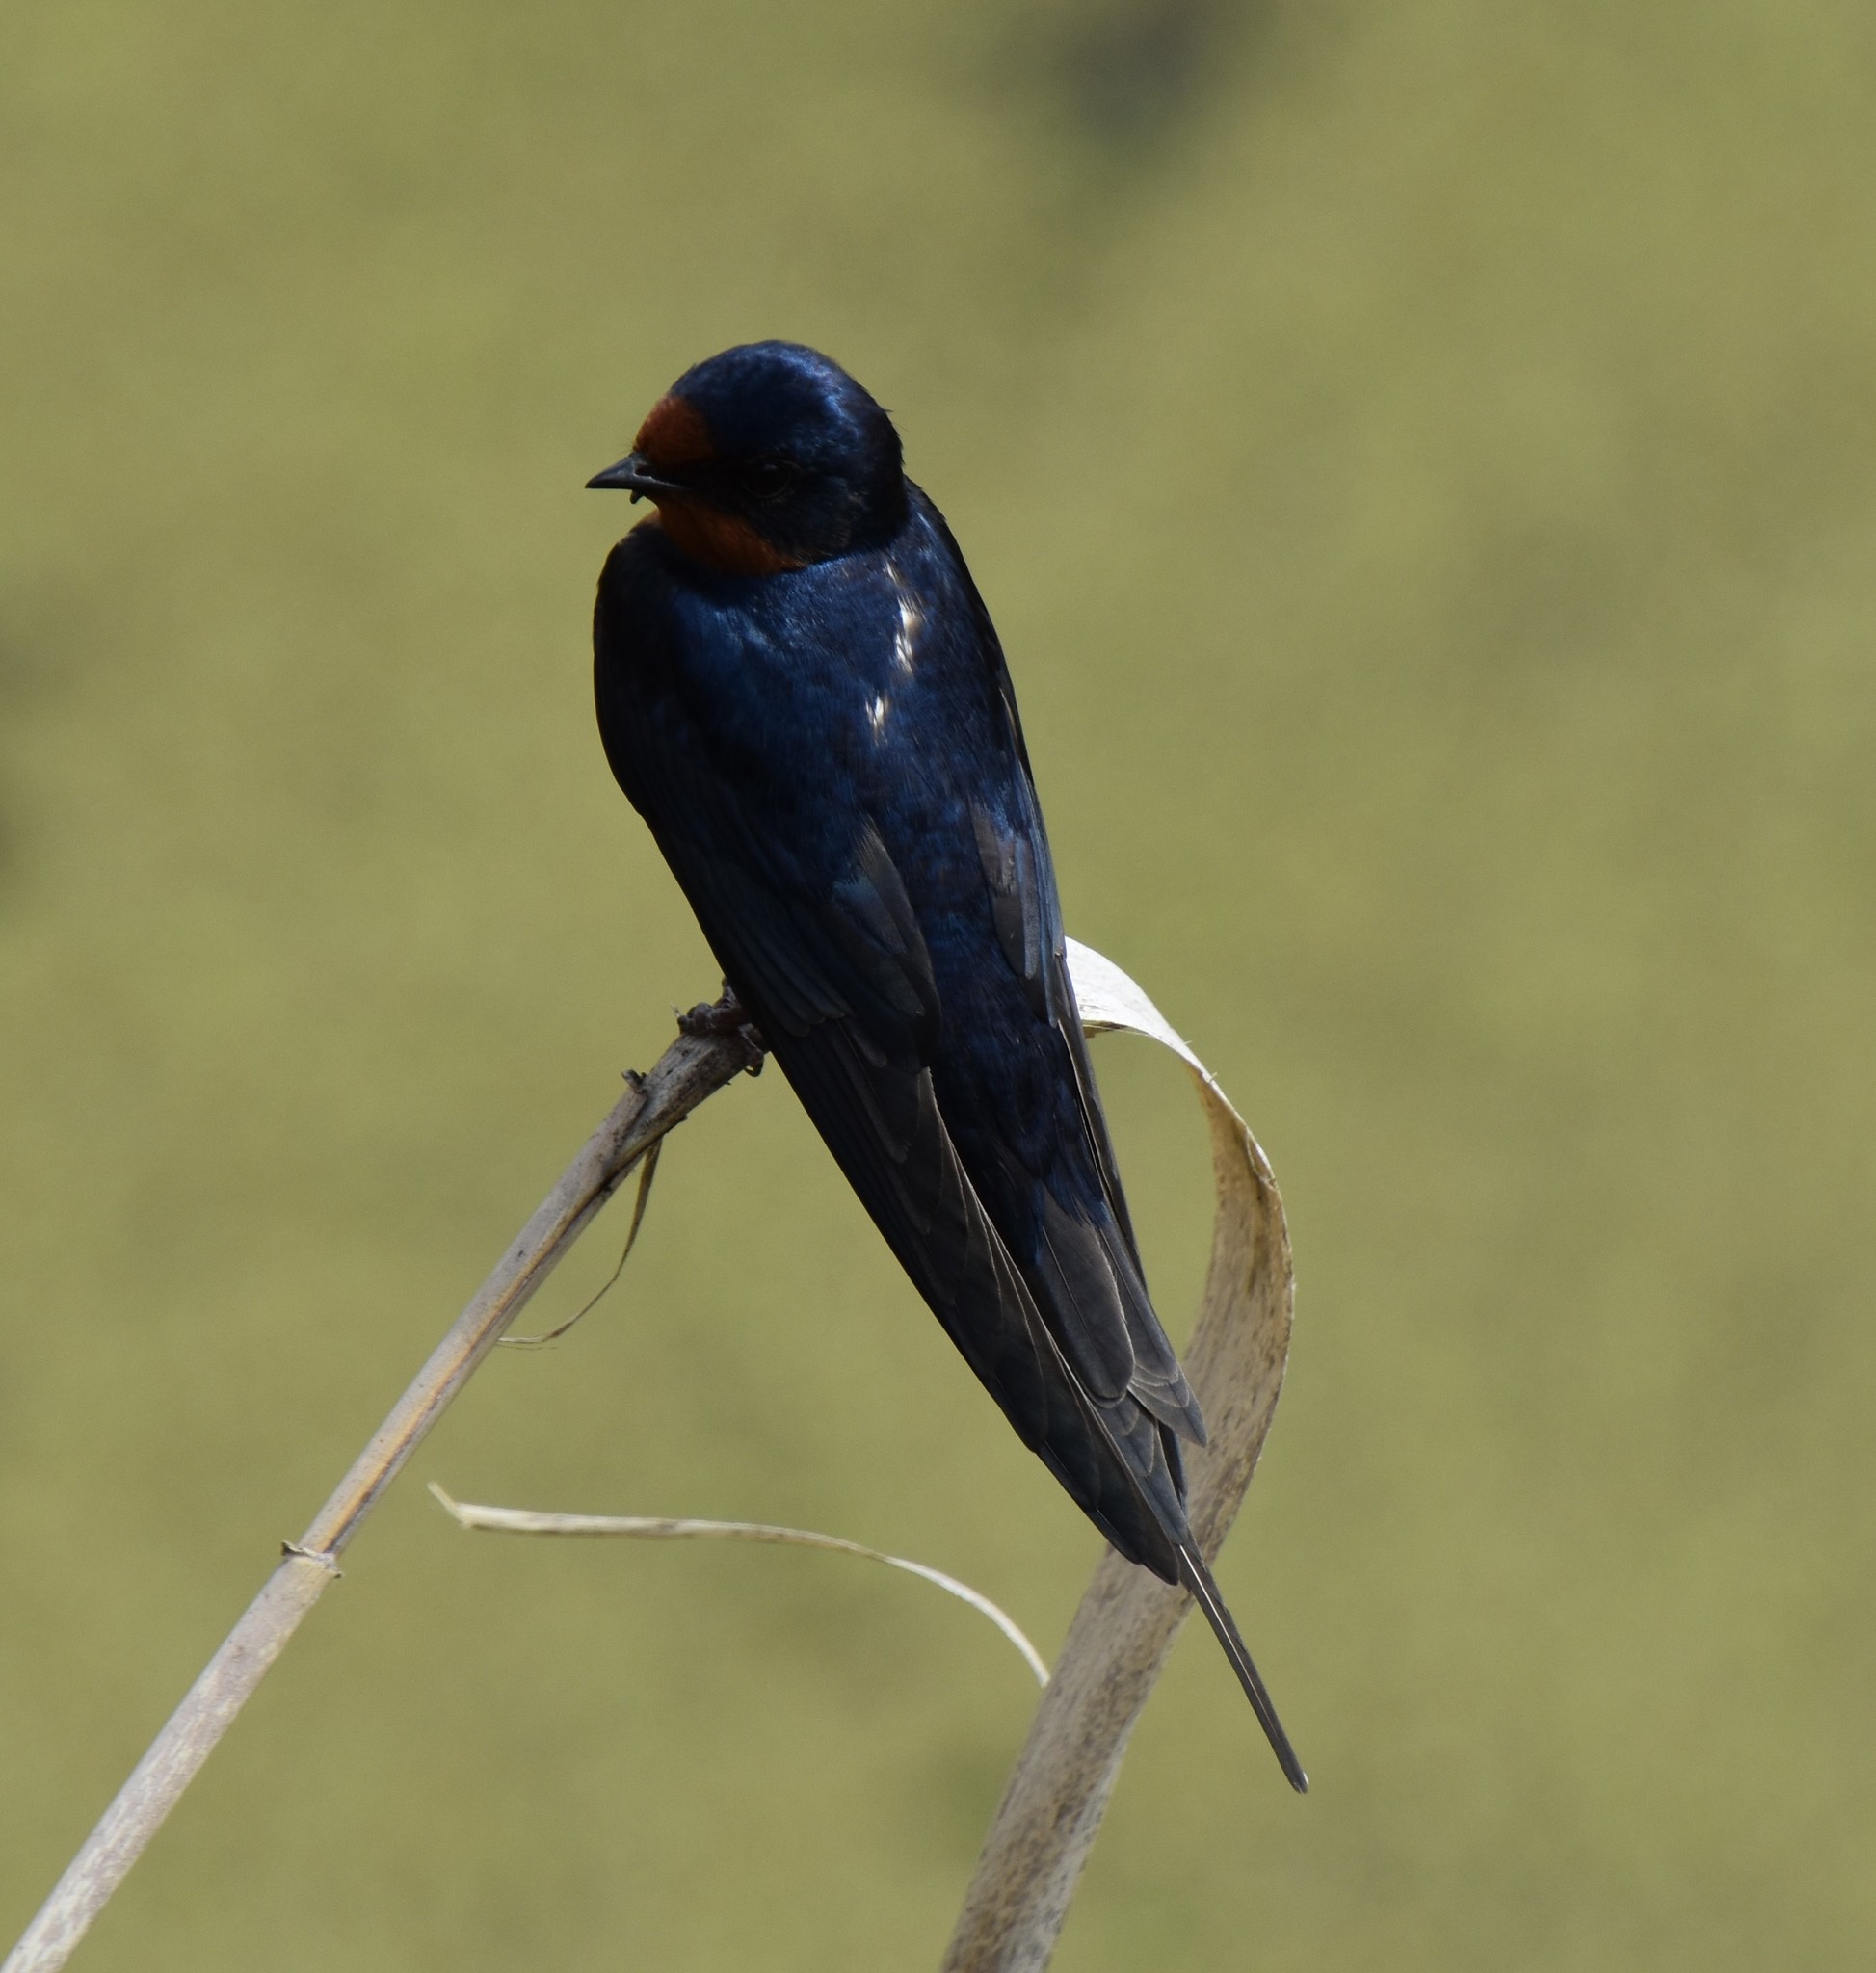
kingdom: Animalia
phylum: Chordata
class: Aves
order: Passeriformes
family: Hirundinidae
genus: Hirundo
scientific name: Hirundo rustica
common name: Barn swallow
